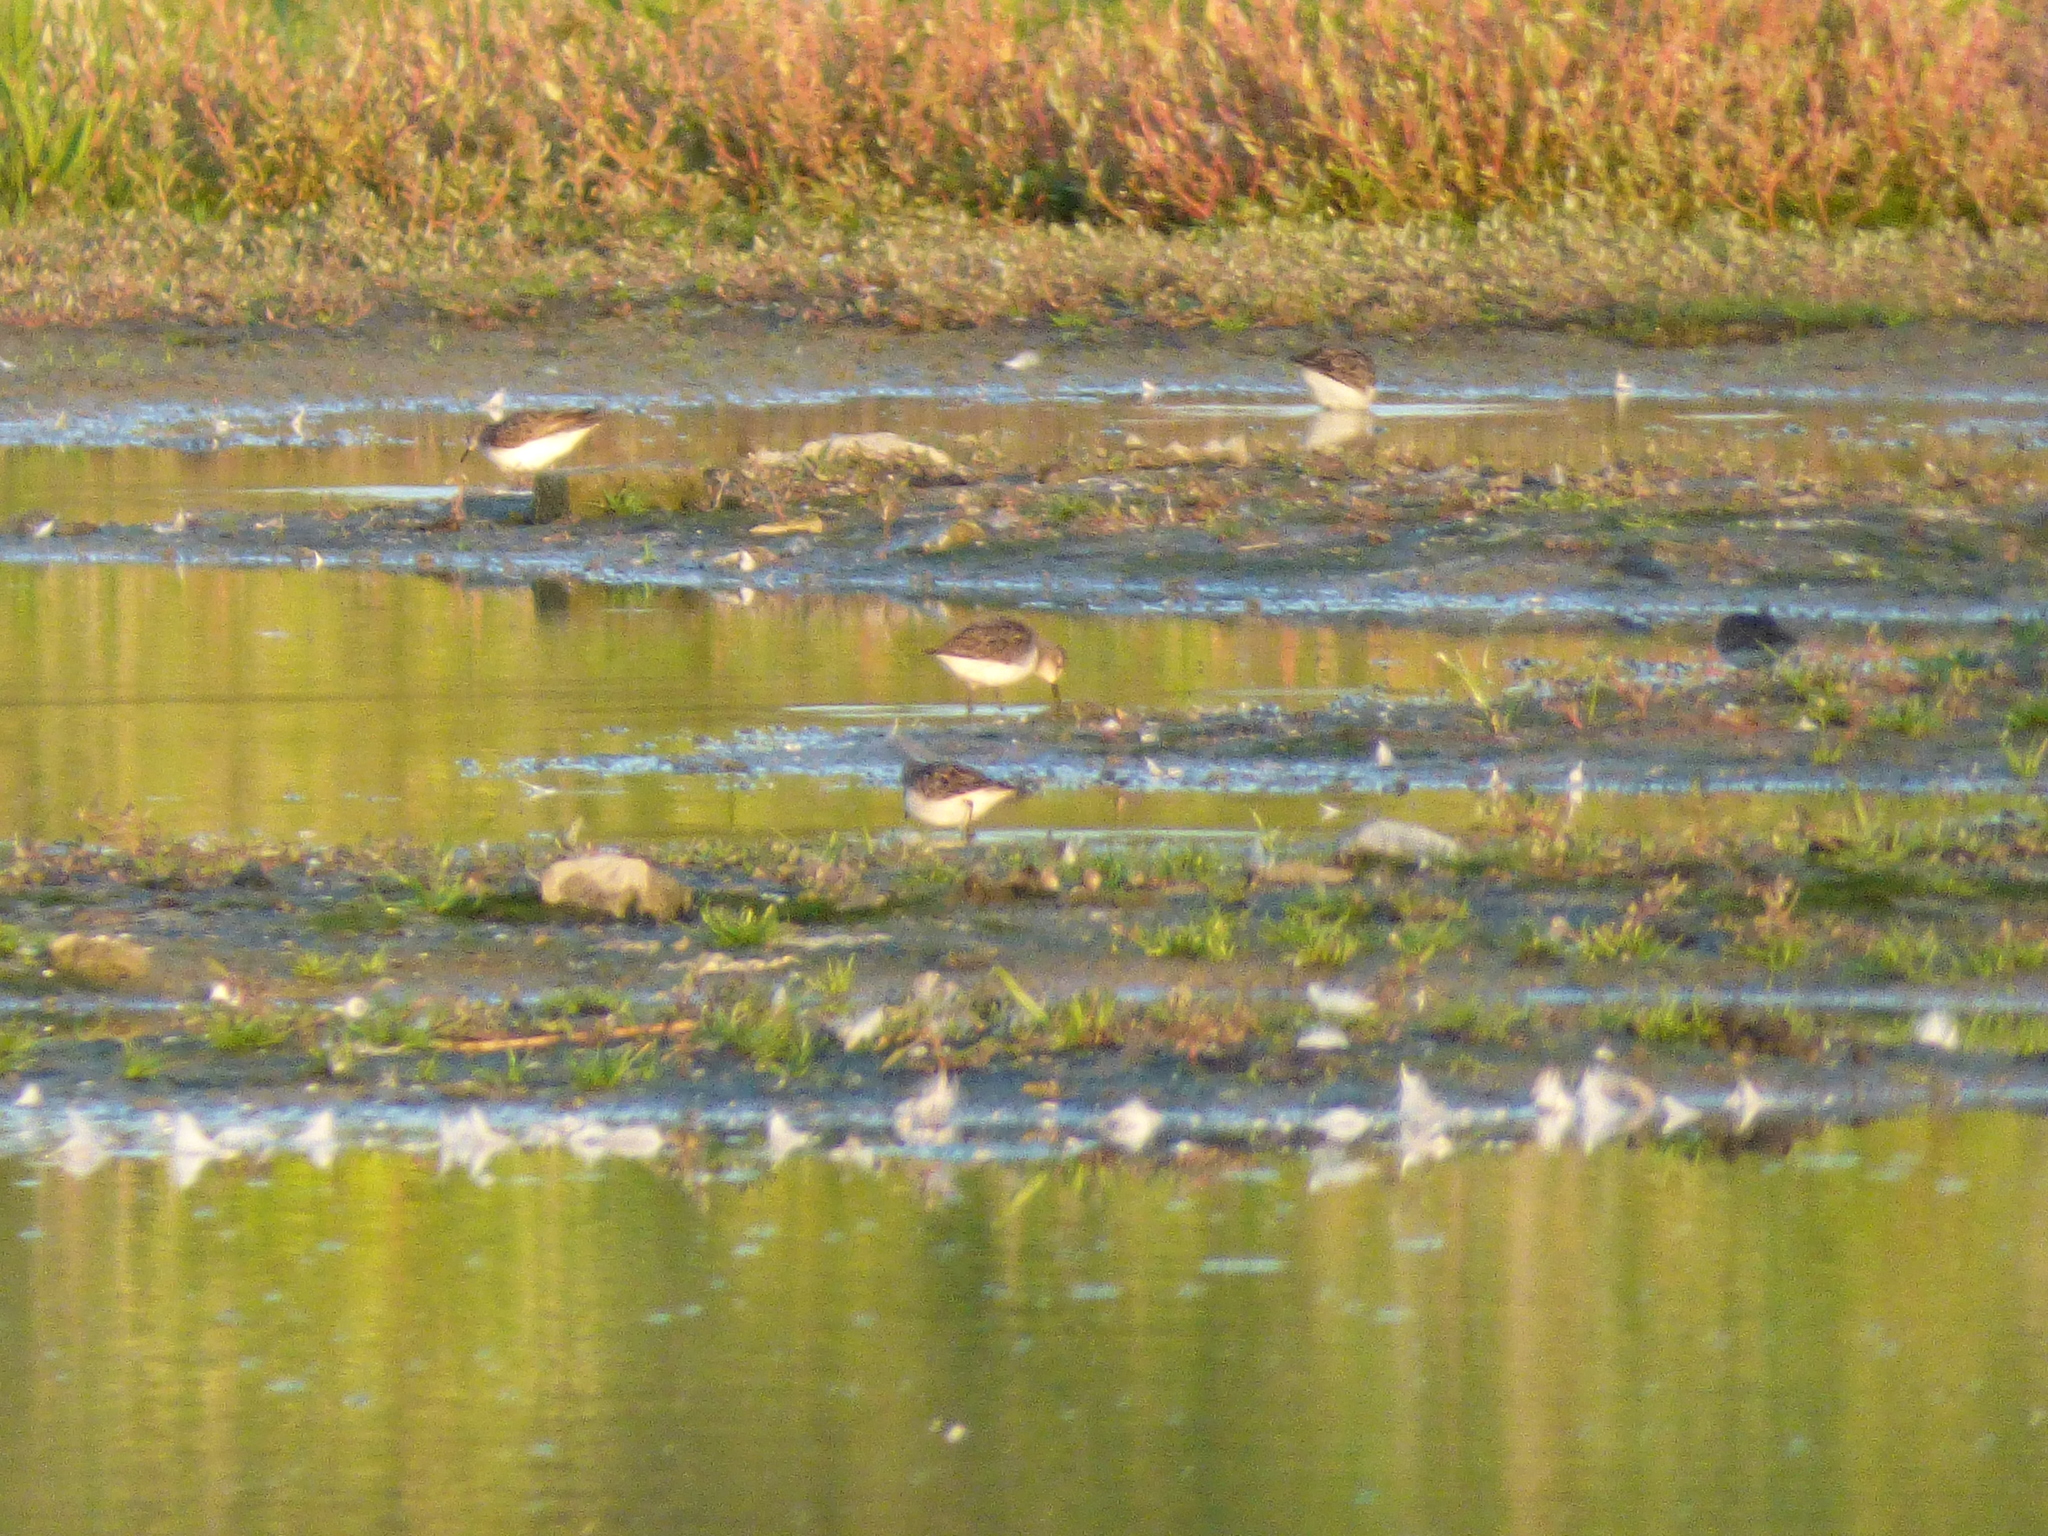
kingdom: Animalia
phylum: Chordata
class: Aves
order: Charadriiformes
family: Scolopacidae
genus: Calidris
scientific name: Calidris pusilla
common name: Semipalmated sandpiper
